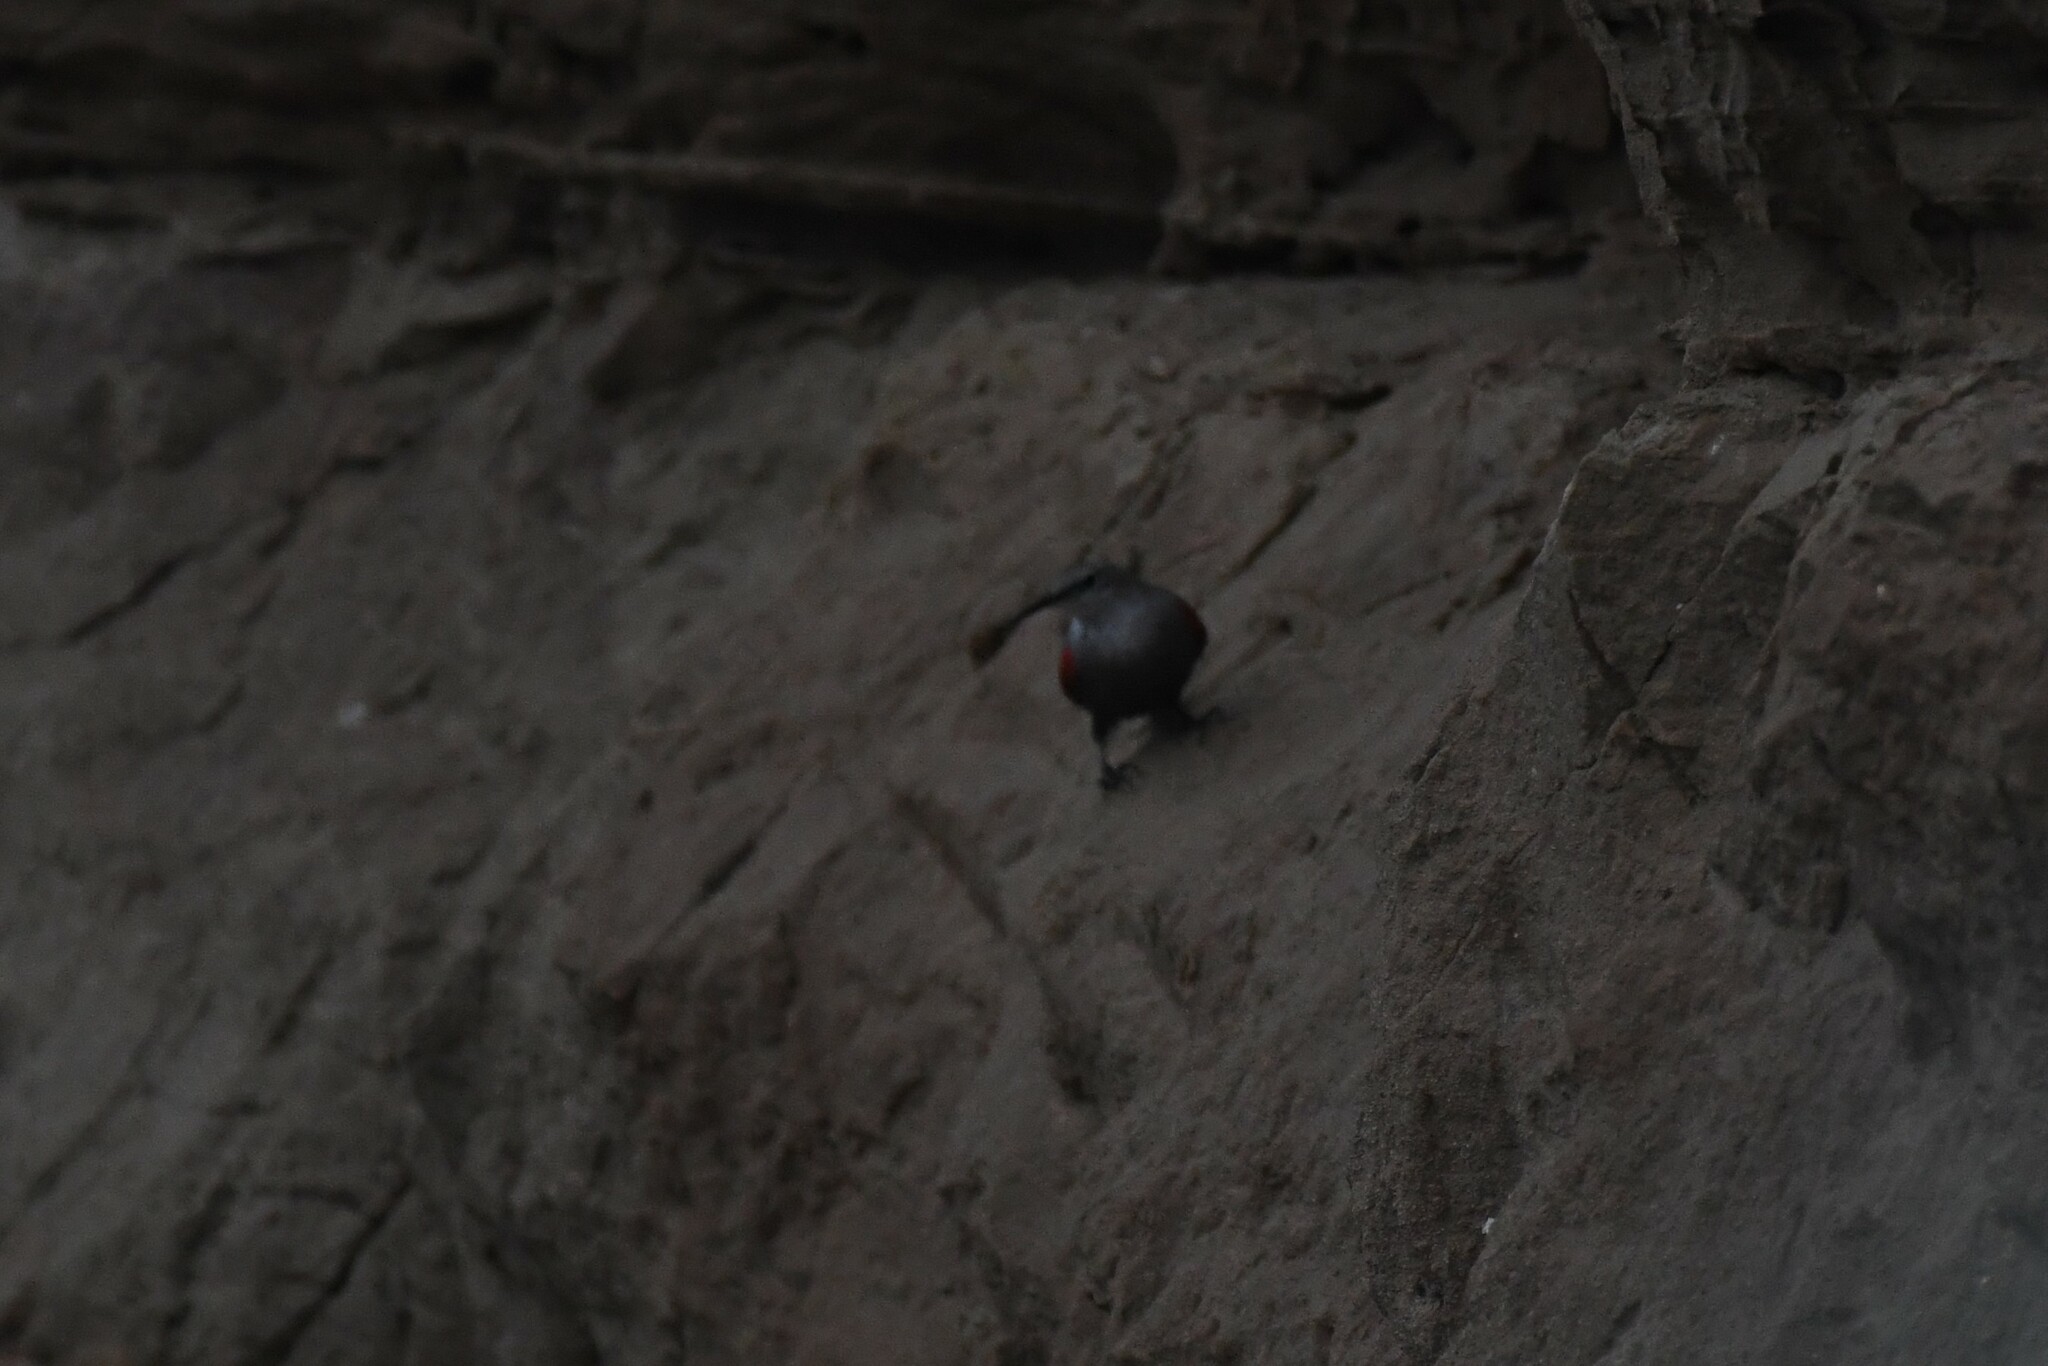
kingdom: Animalia
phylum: Chordata
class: Aves
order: Passeriformes
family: Tichodromidae
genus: Tichodroma
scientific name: Tichodroma muraria
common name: Wallcreeper
